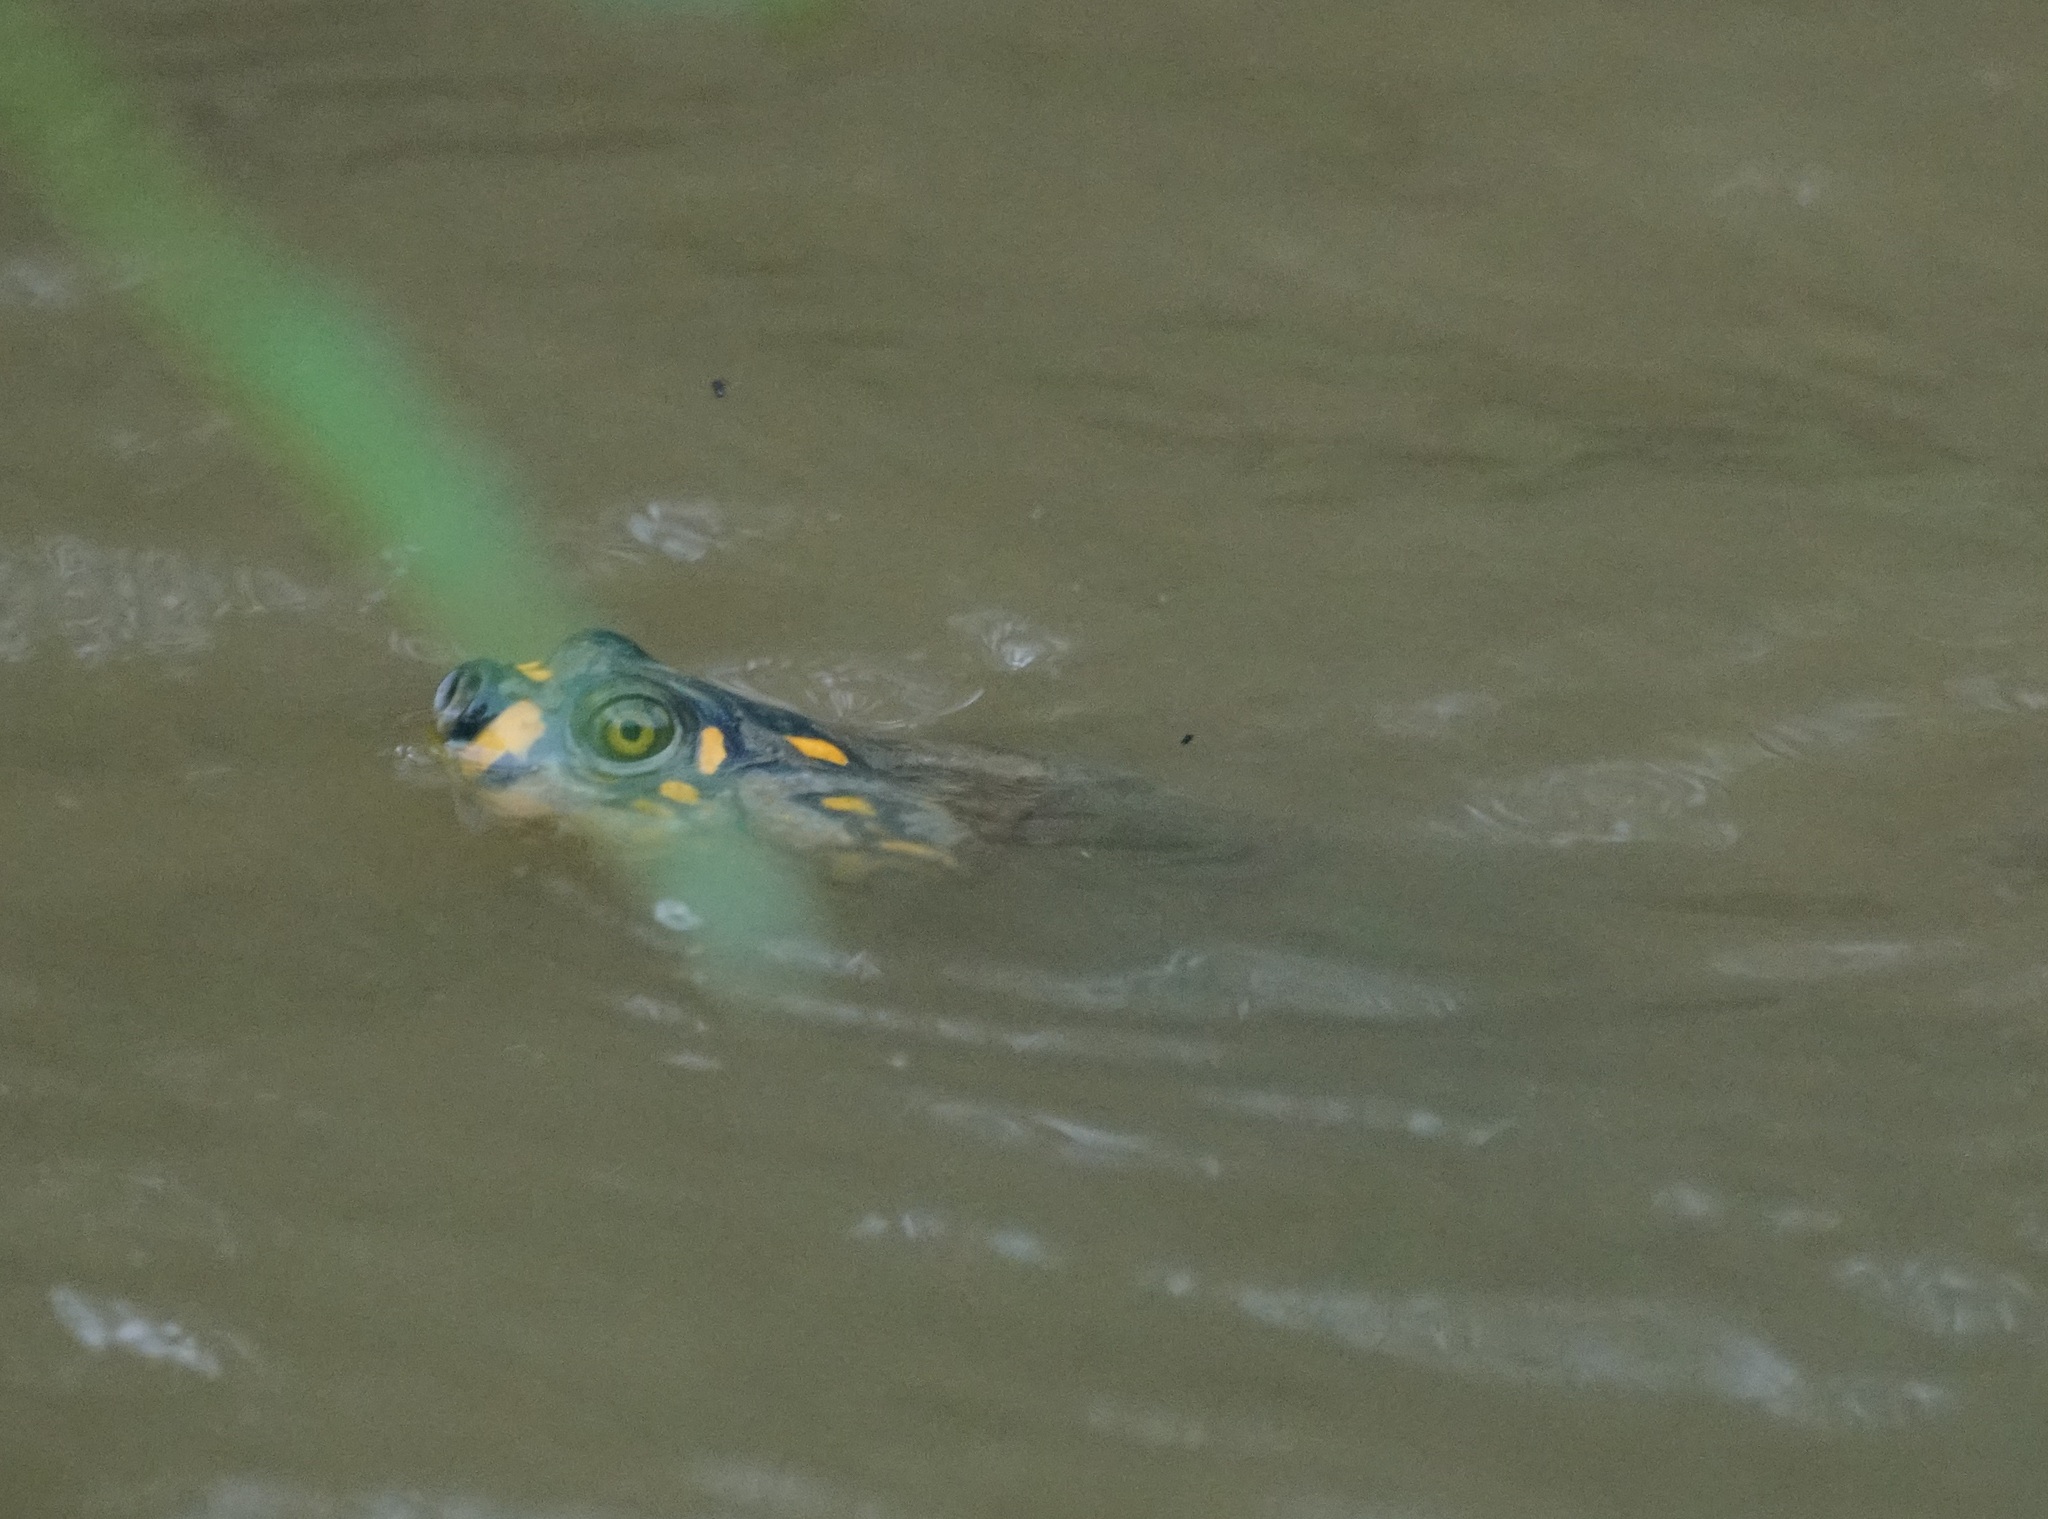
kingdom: Animalia
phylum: Chordata
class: Testudines
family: Podocnemididae
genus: Podocnemis
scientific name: Podocnemis unifilis
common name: Yellow-spotted amazon river turtle
